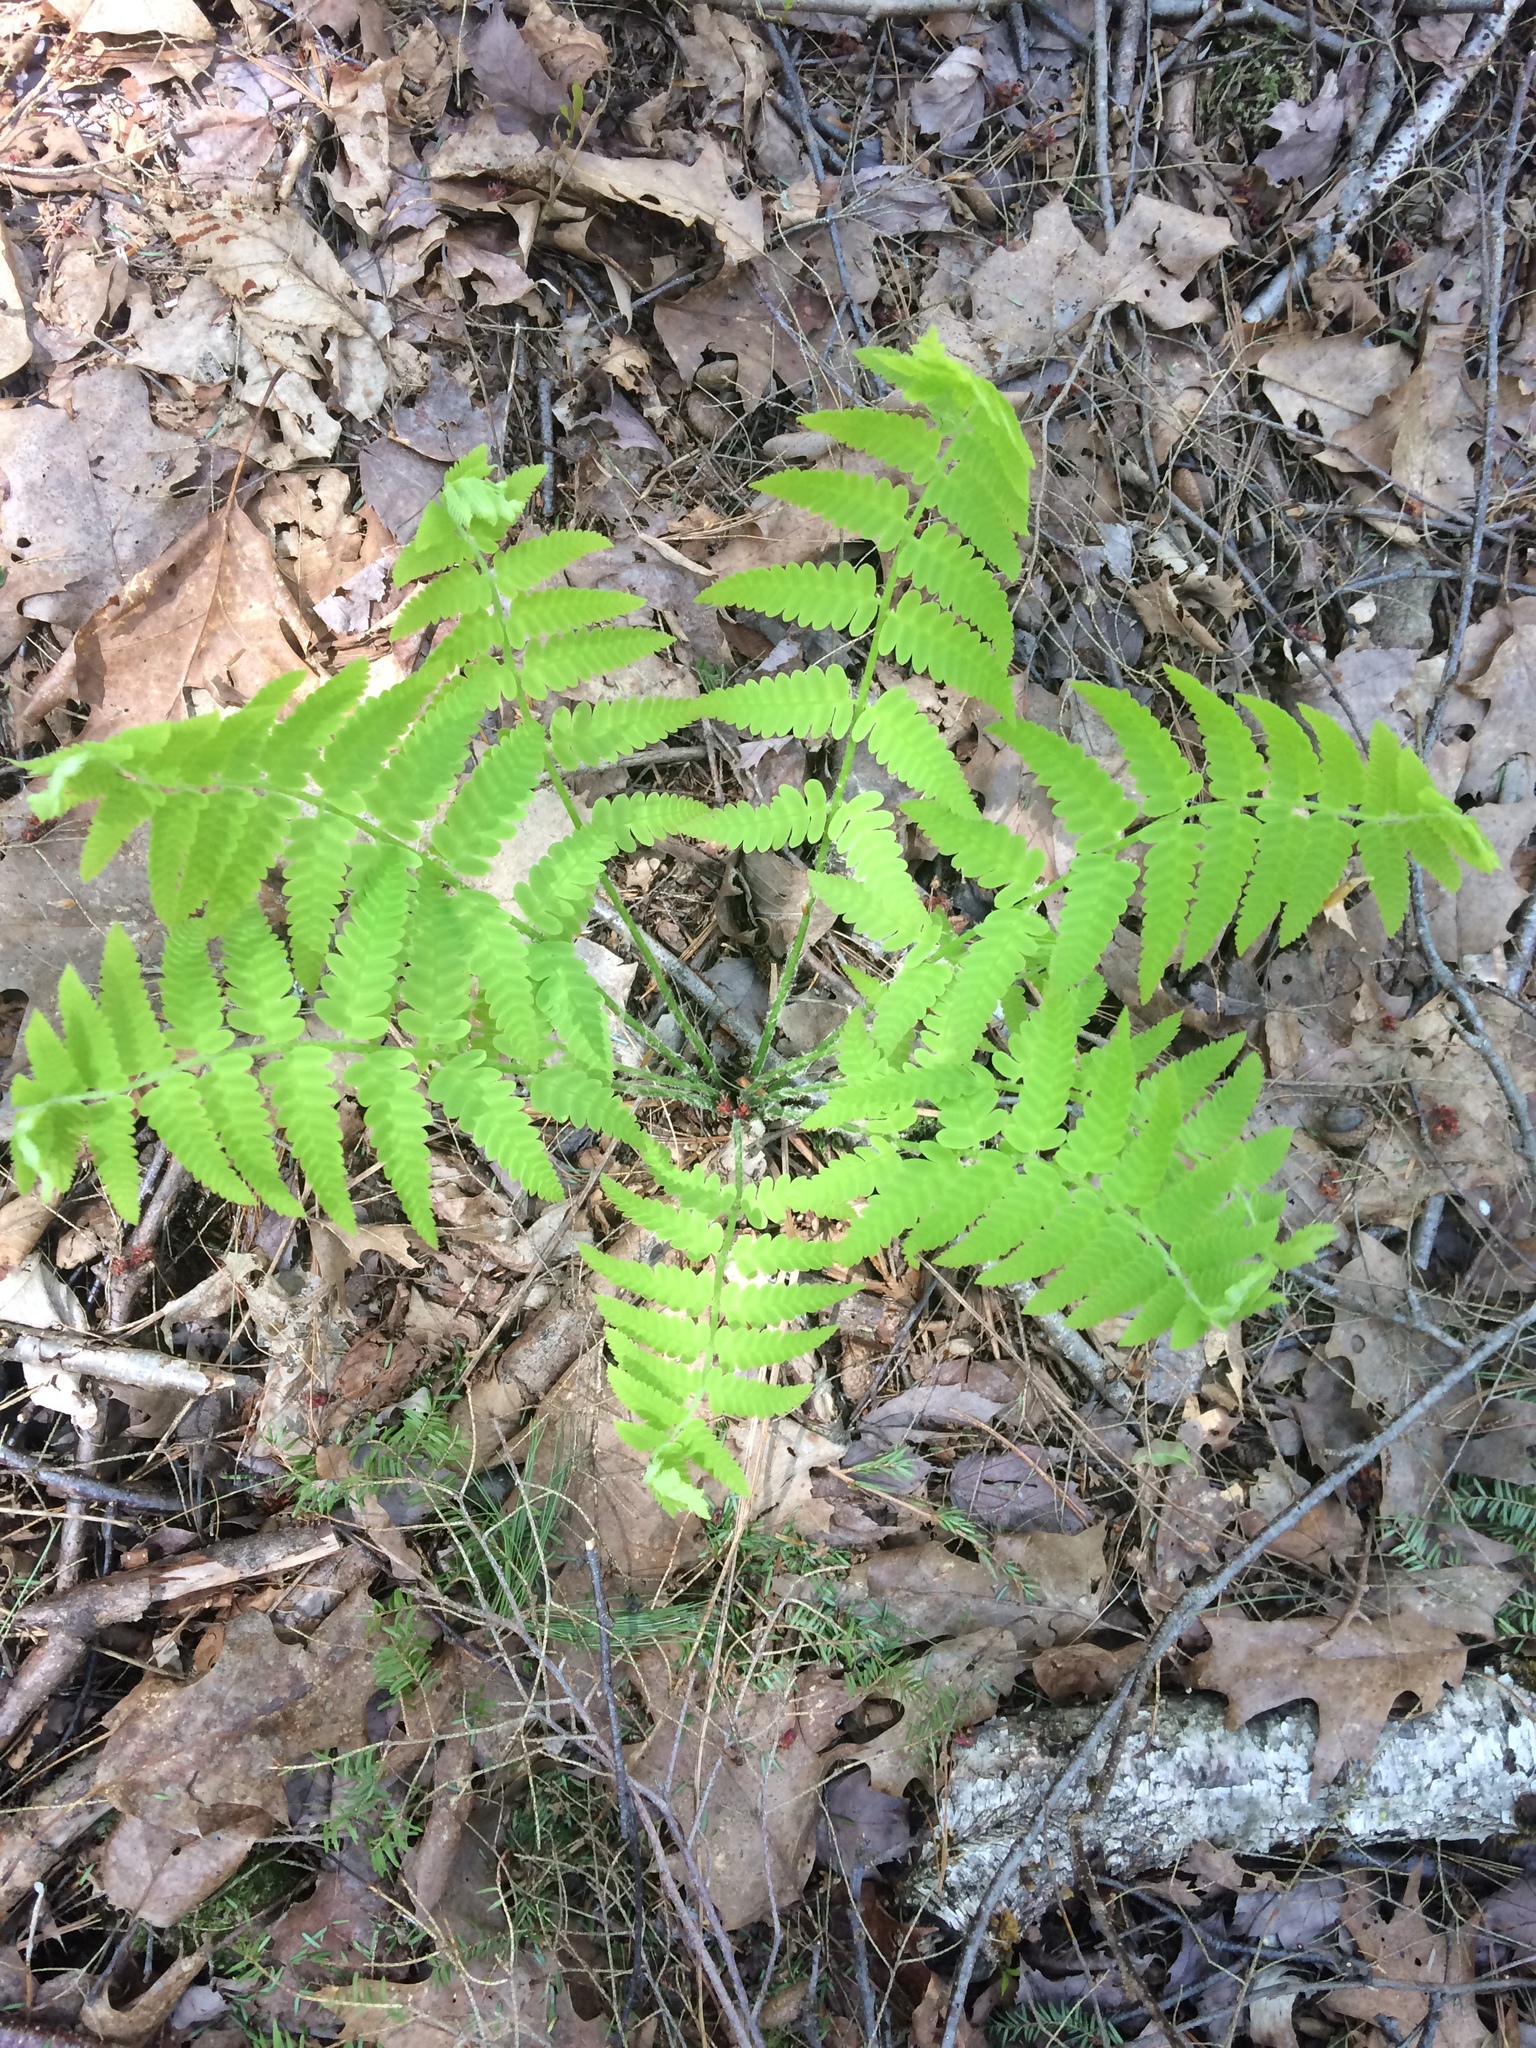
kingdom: Plantae
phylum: Tracheophyta
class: Polypodiopsida
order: Osmundales
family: Osmundaceae
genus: Claytosmunda
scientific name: Claytosmunda claytoniana
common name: Clayton's fern
